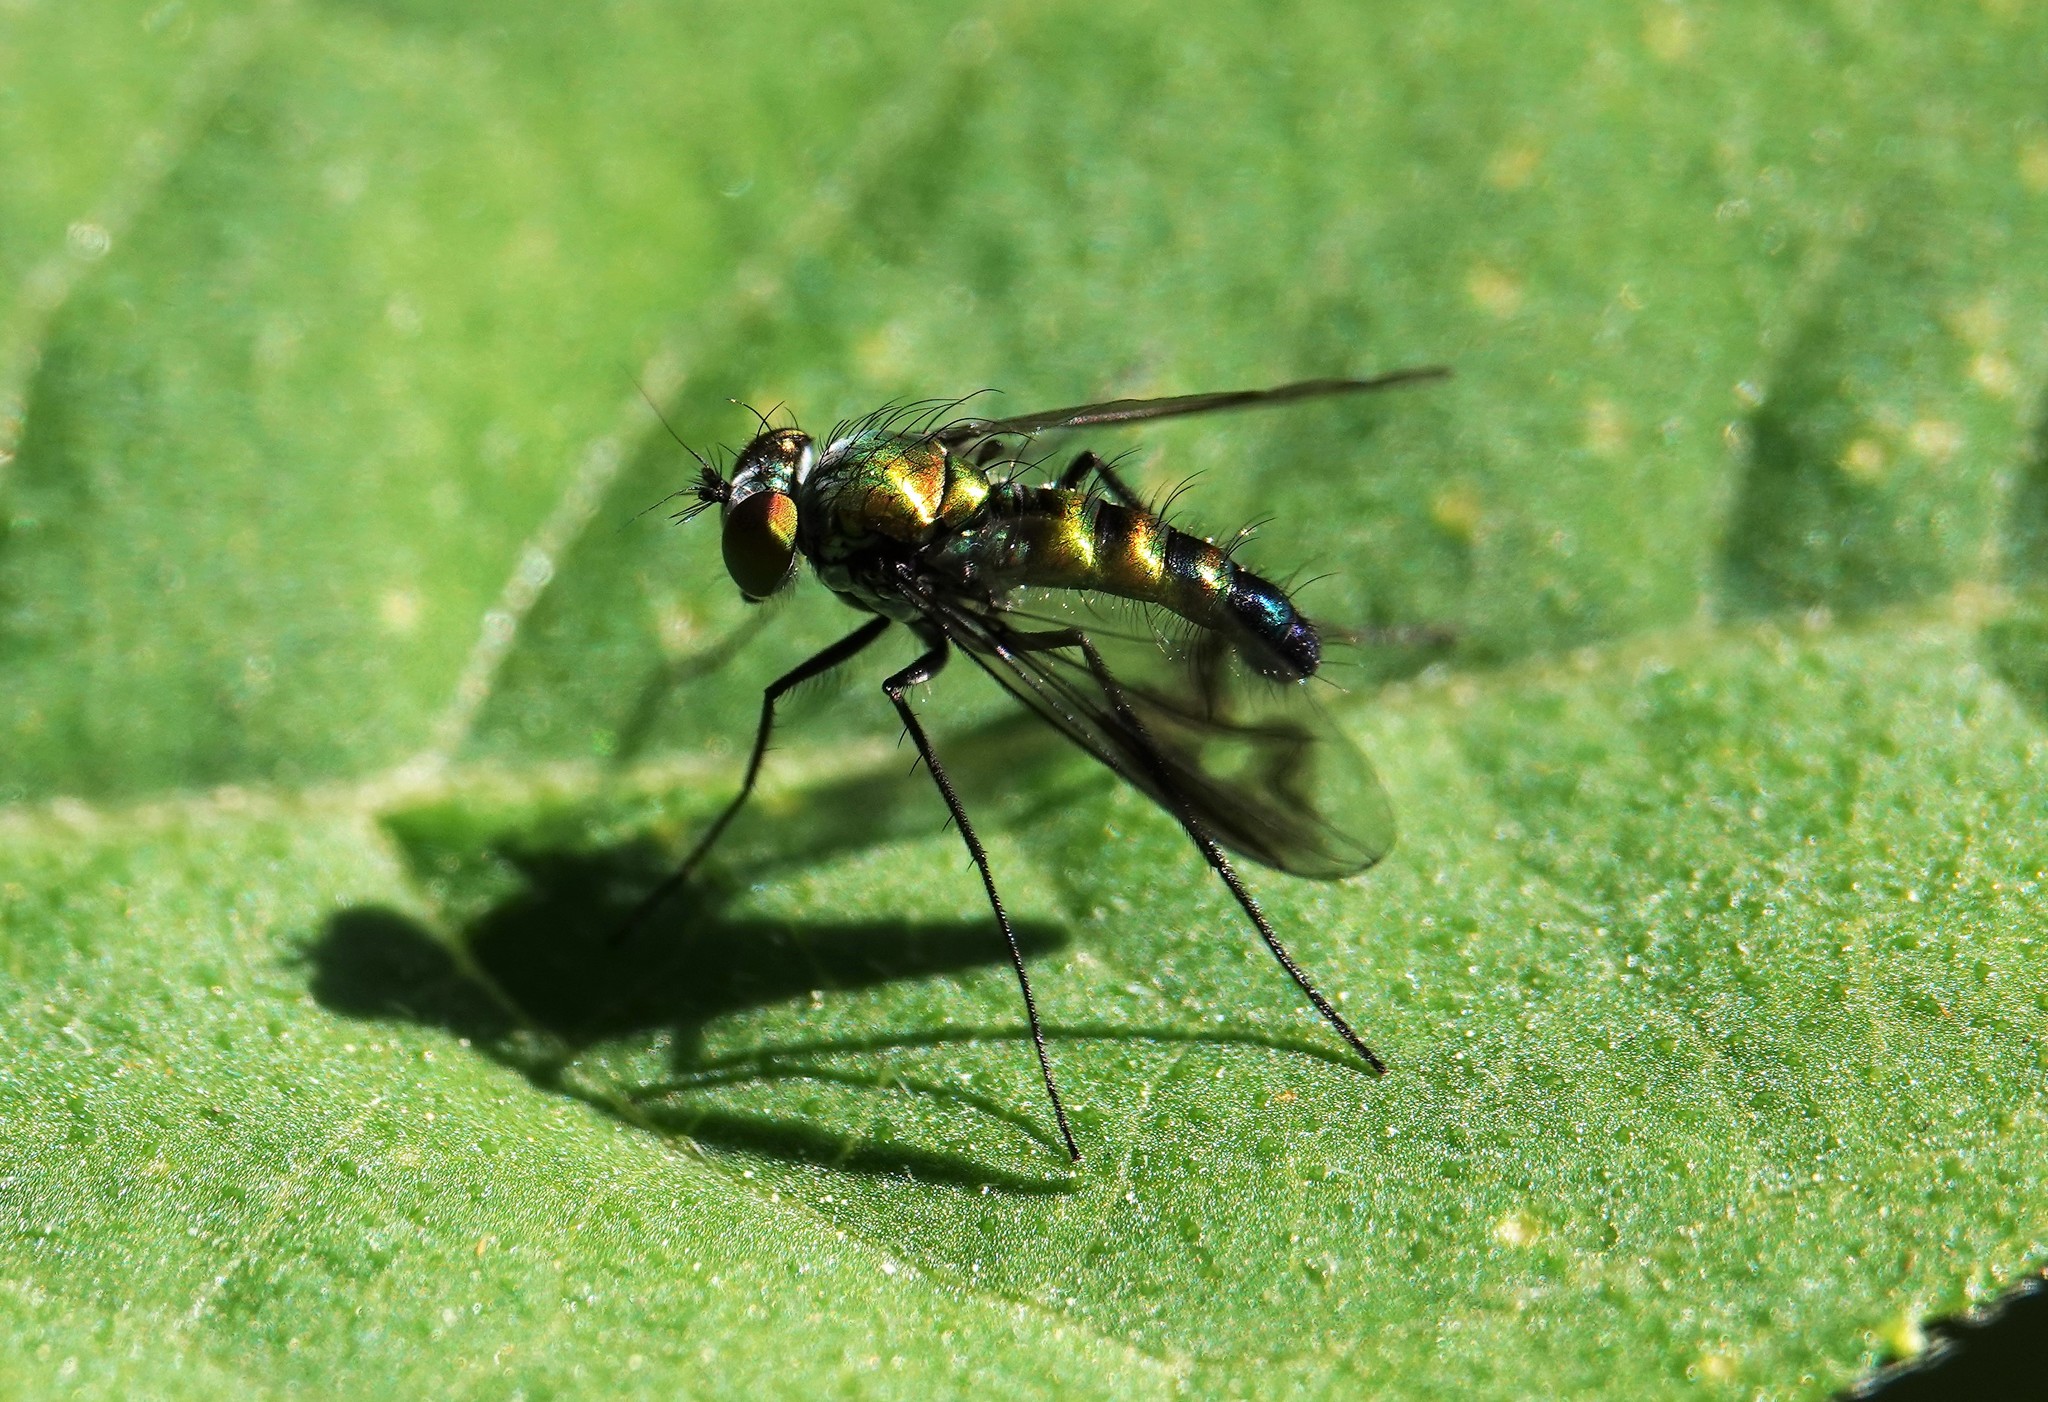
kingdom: Animalia
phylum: Arthropoda
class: Insecta
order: Diptera
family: Dolichopodidae
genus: Condylostylus
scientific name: Condylostylus patibulatus
